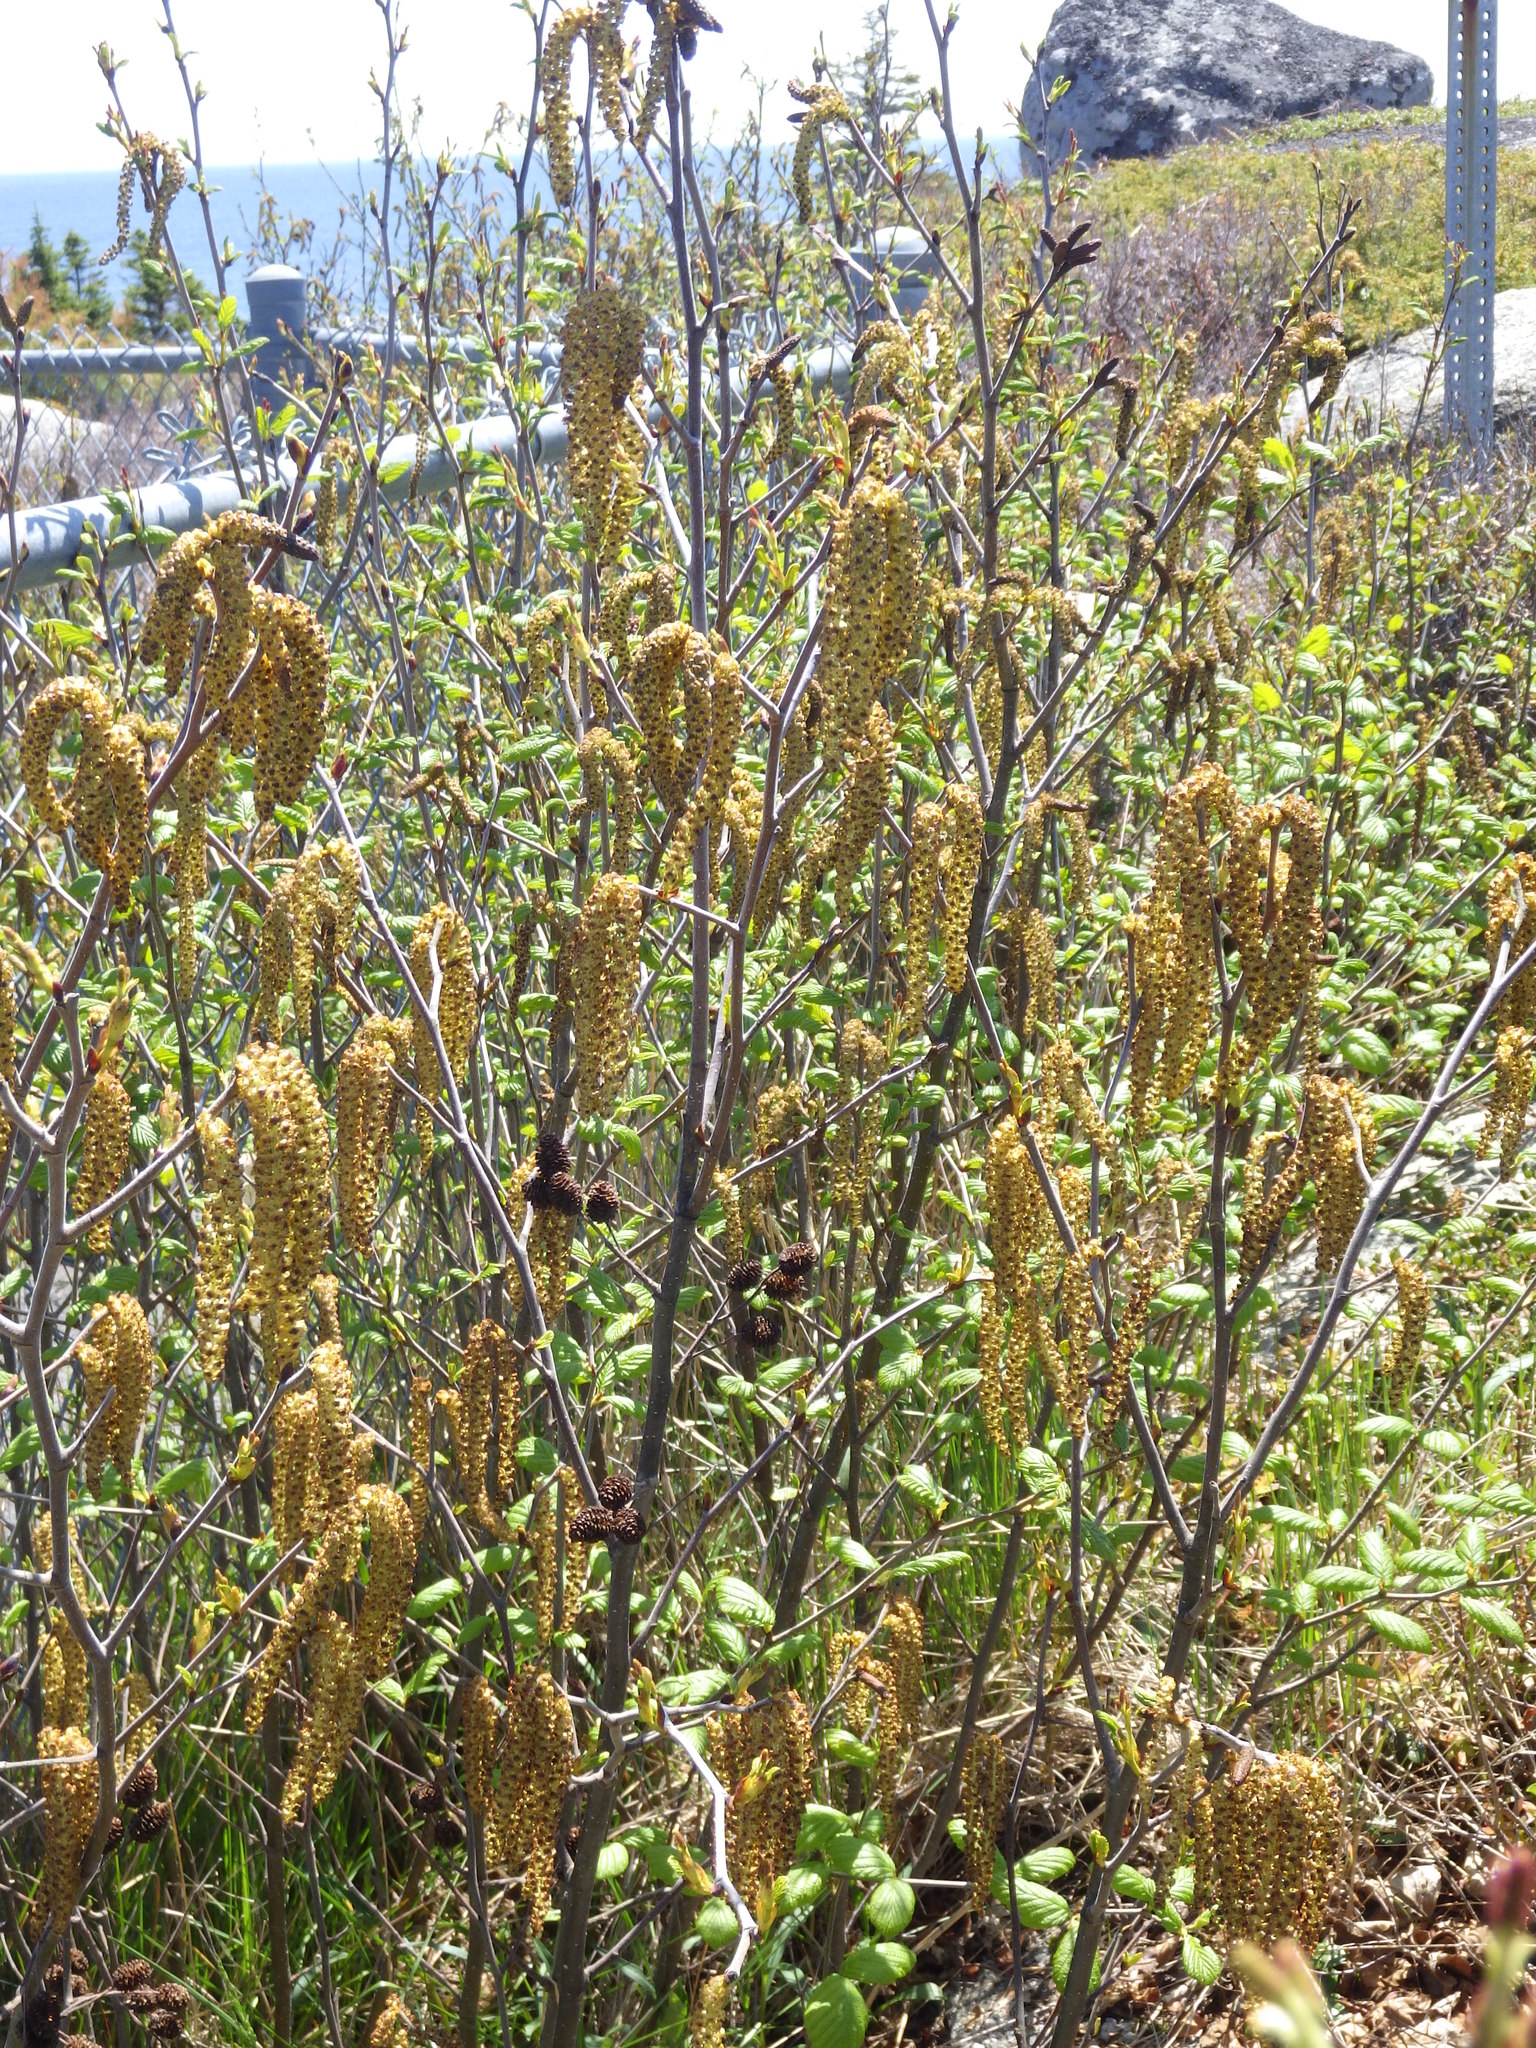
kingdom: Plantae
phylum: Tracheophyta
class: Magnoliopsida
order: Fagales
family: Betulaceae
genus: Alnus
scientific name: Alnus alnobetula
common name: Green alder
